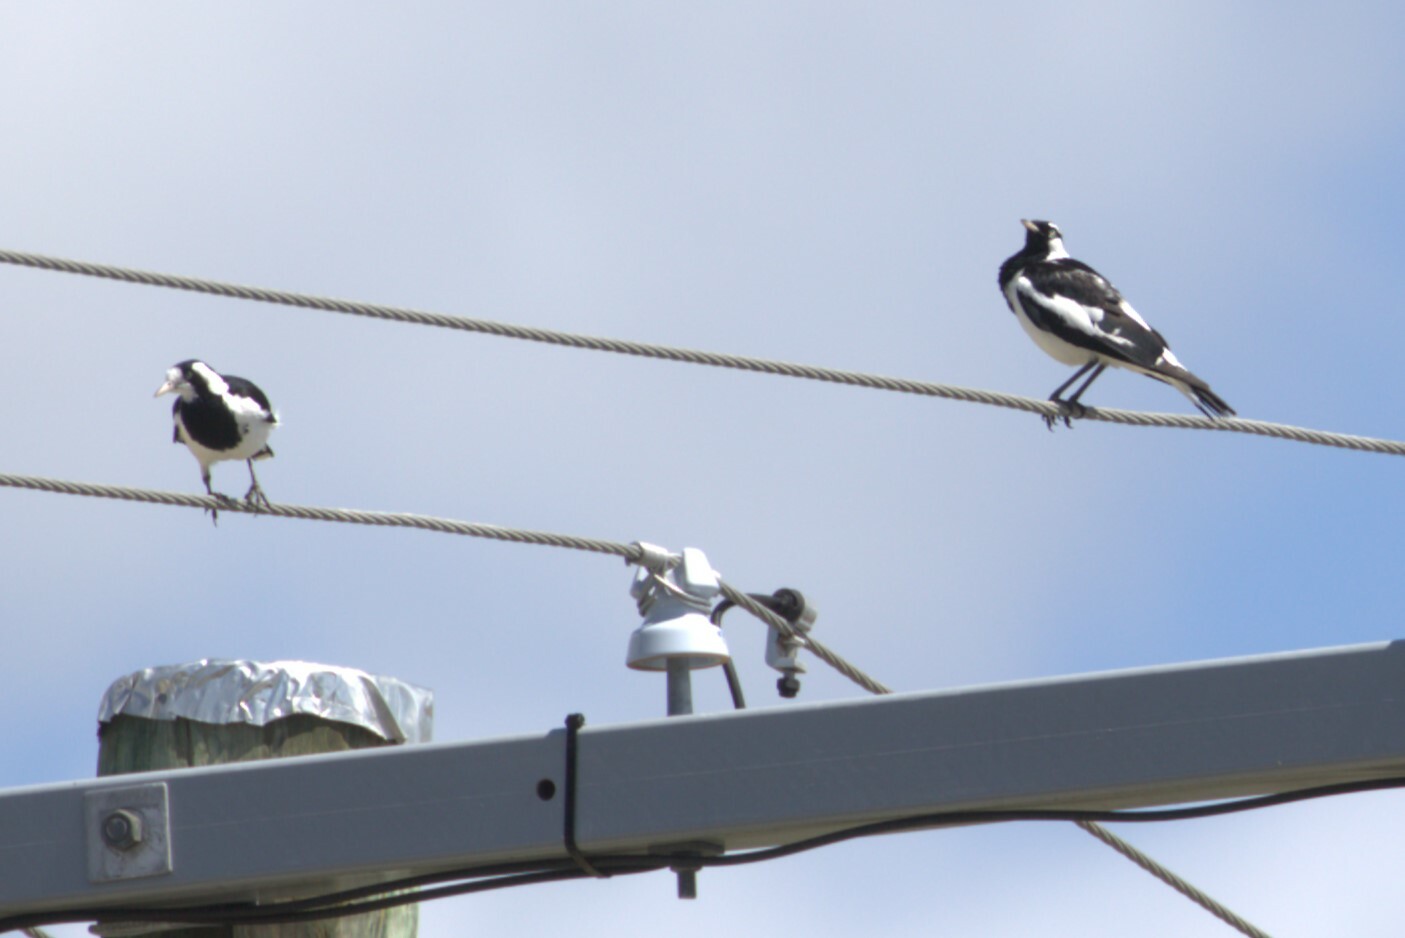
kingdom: Animalia
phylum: Chordata
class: Aves
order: Passeriformes
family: Monarchidae
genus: Grallina
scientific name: Grallina cyanoleuca
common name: Magpie-lark
